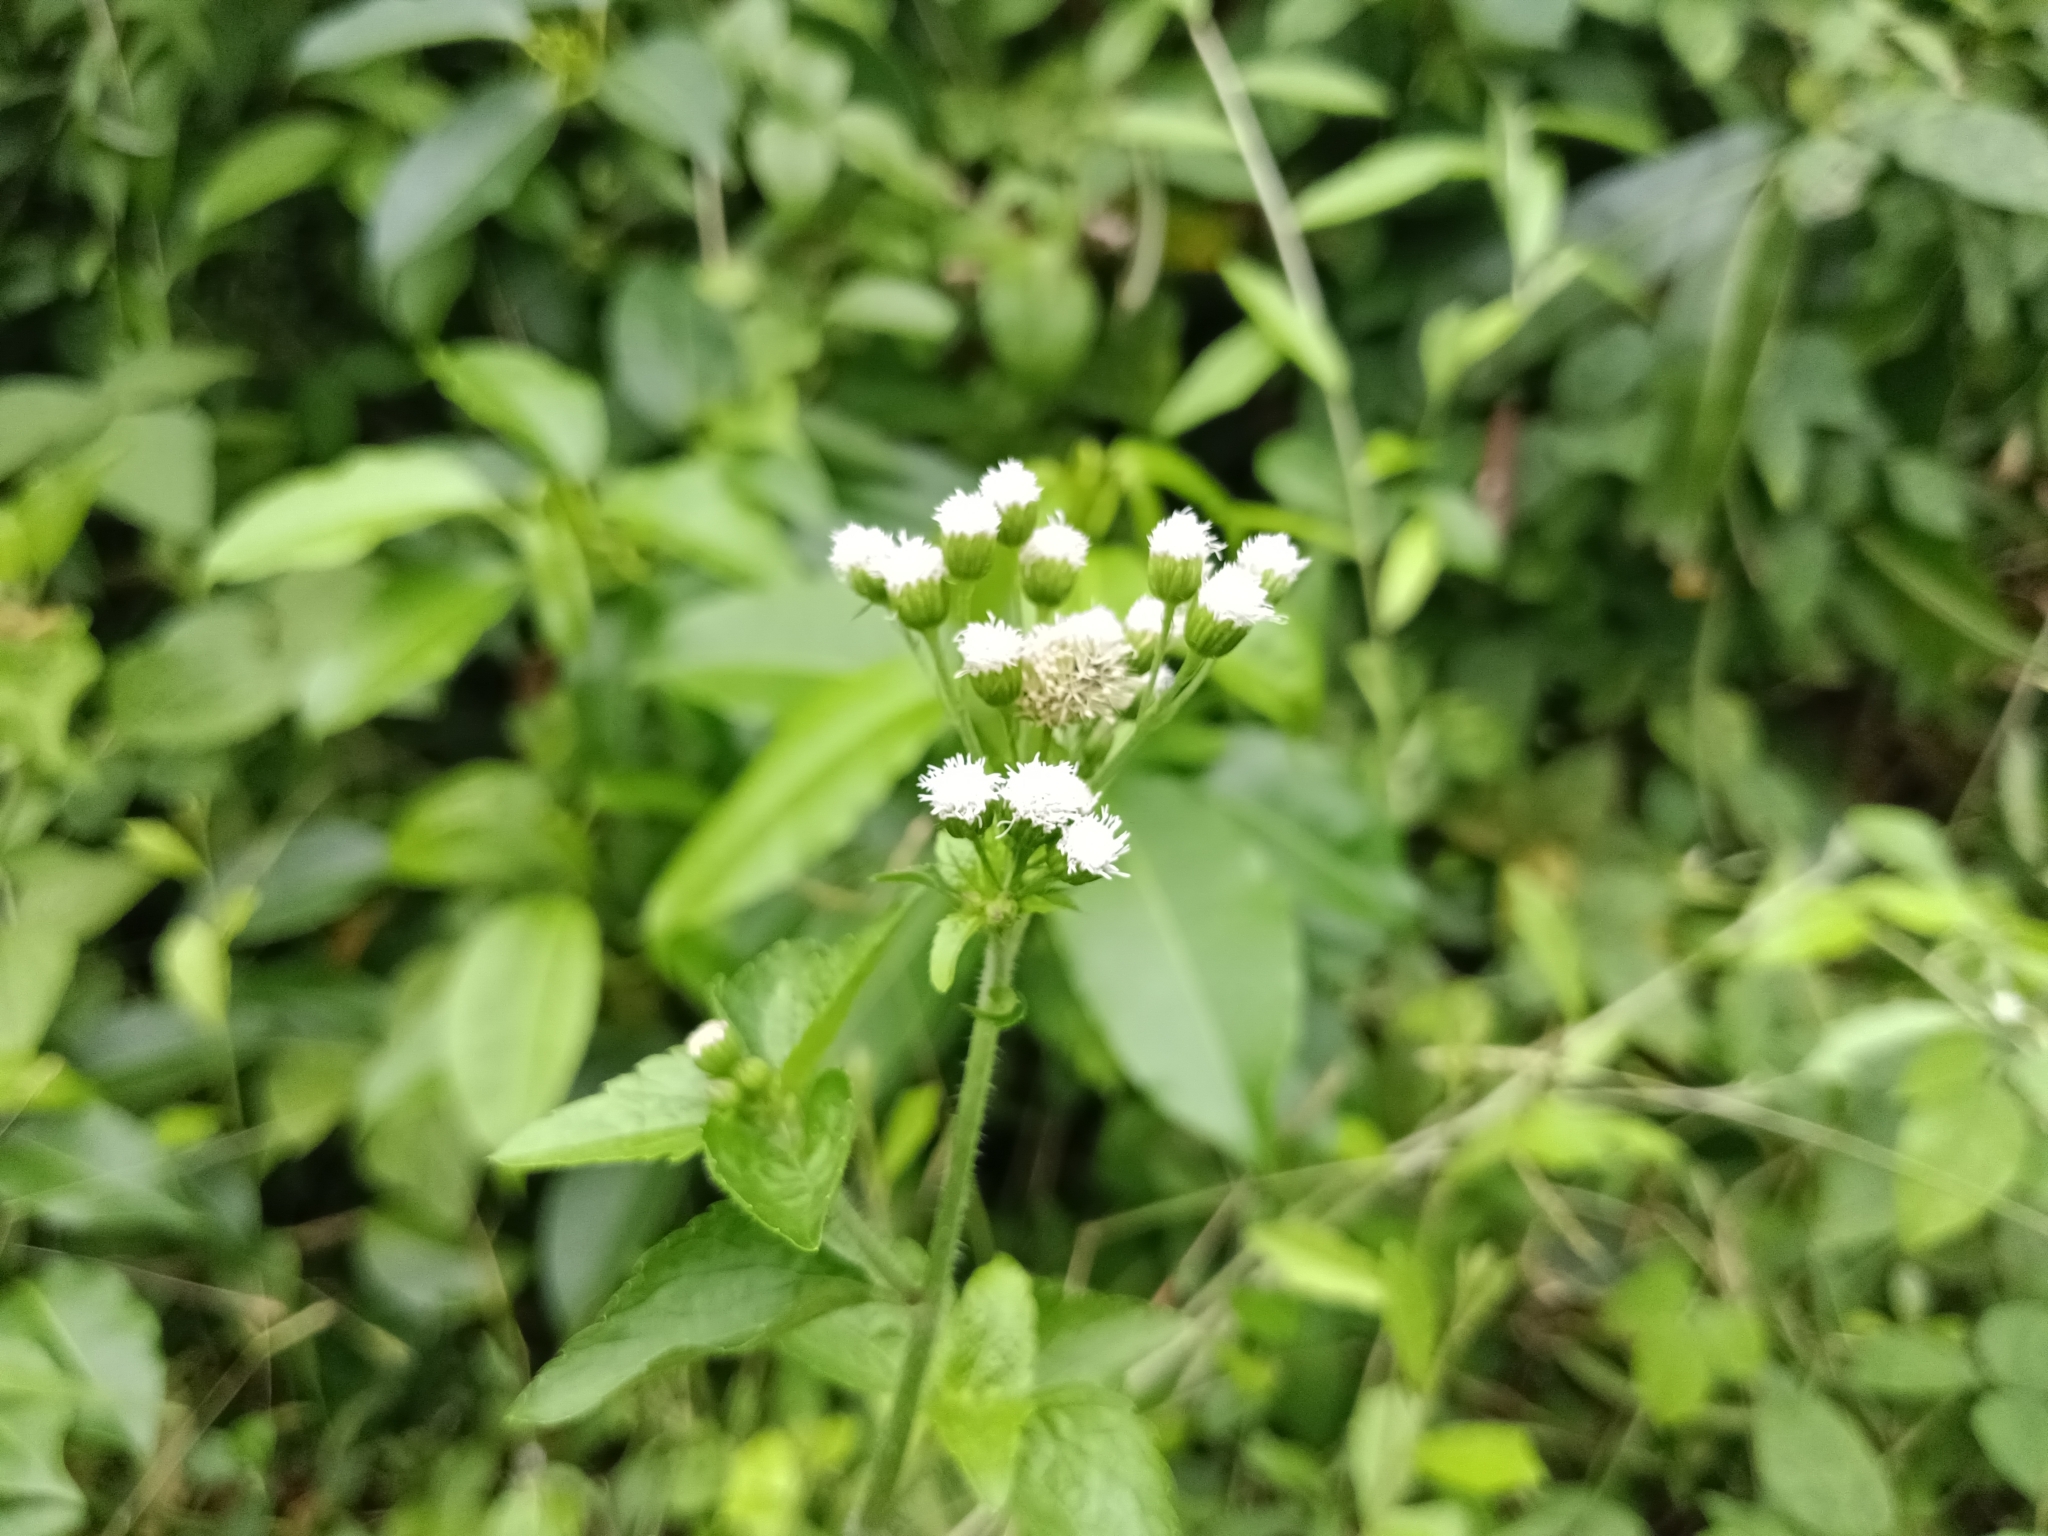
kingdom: Plantae
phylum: Tracheophyta
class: Magnoliopsida
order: Asterales
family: Asteraceae
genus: Ageratum
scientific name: Ageratum conyzoides
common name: Tropical whiteweed
